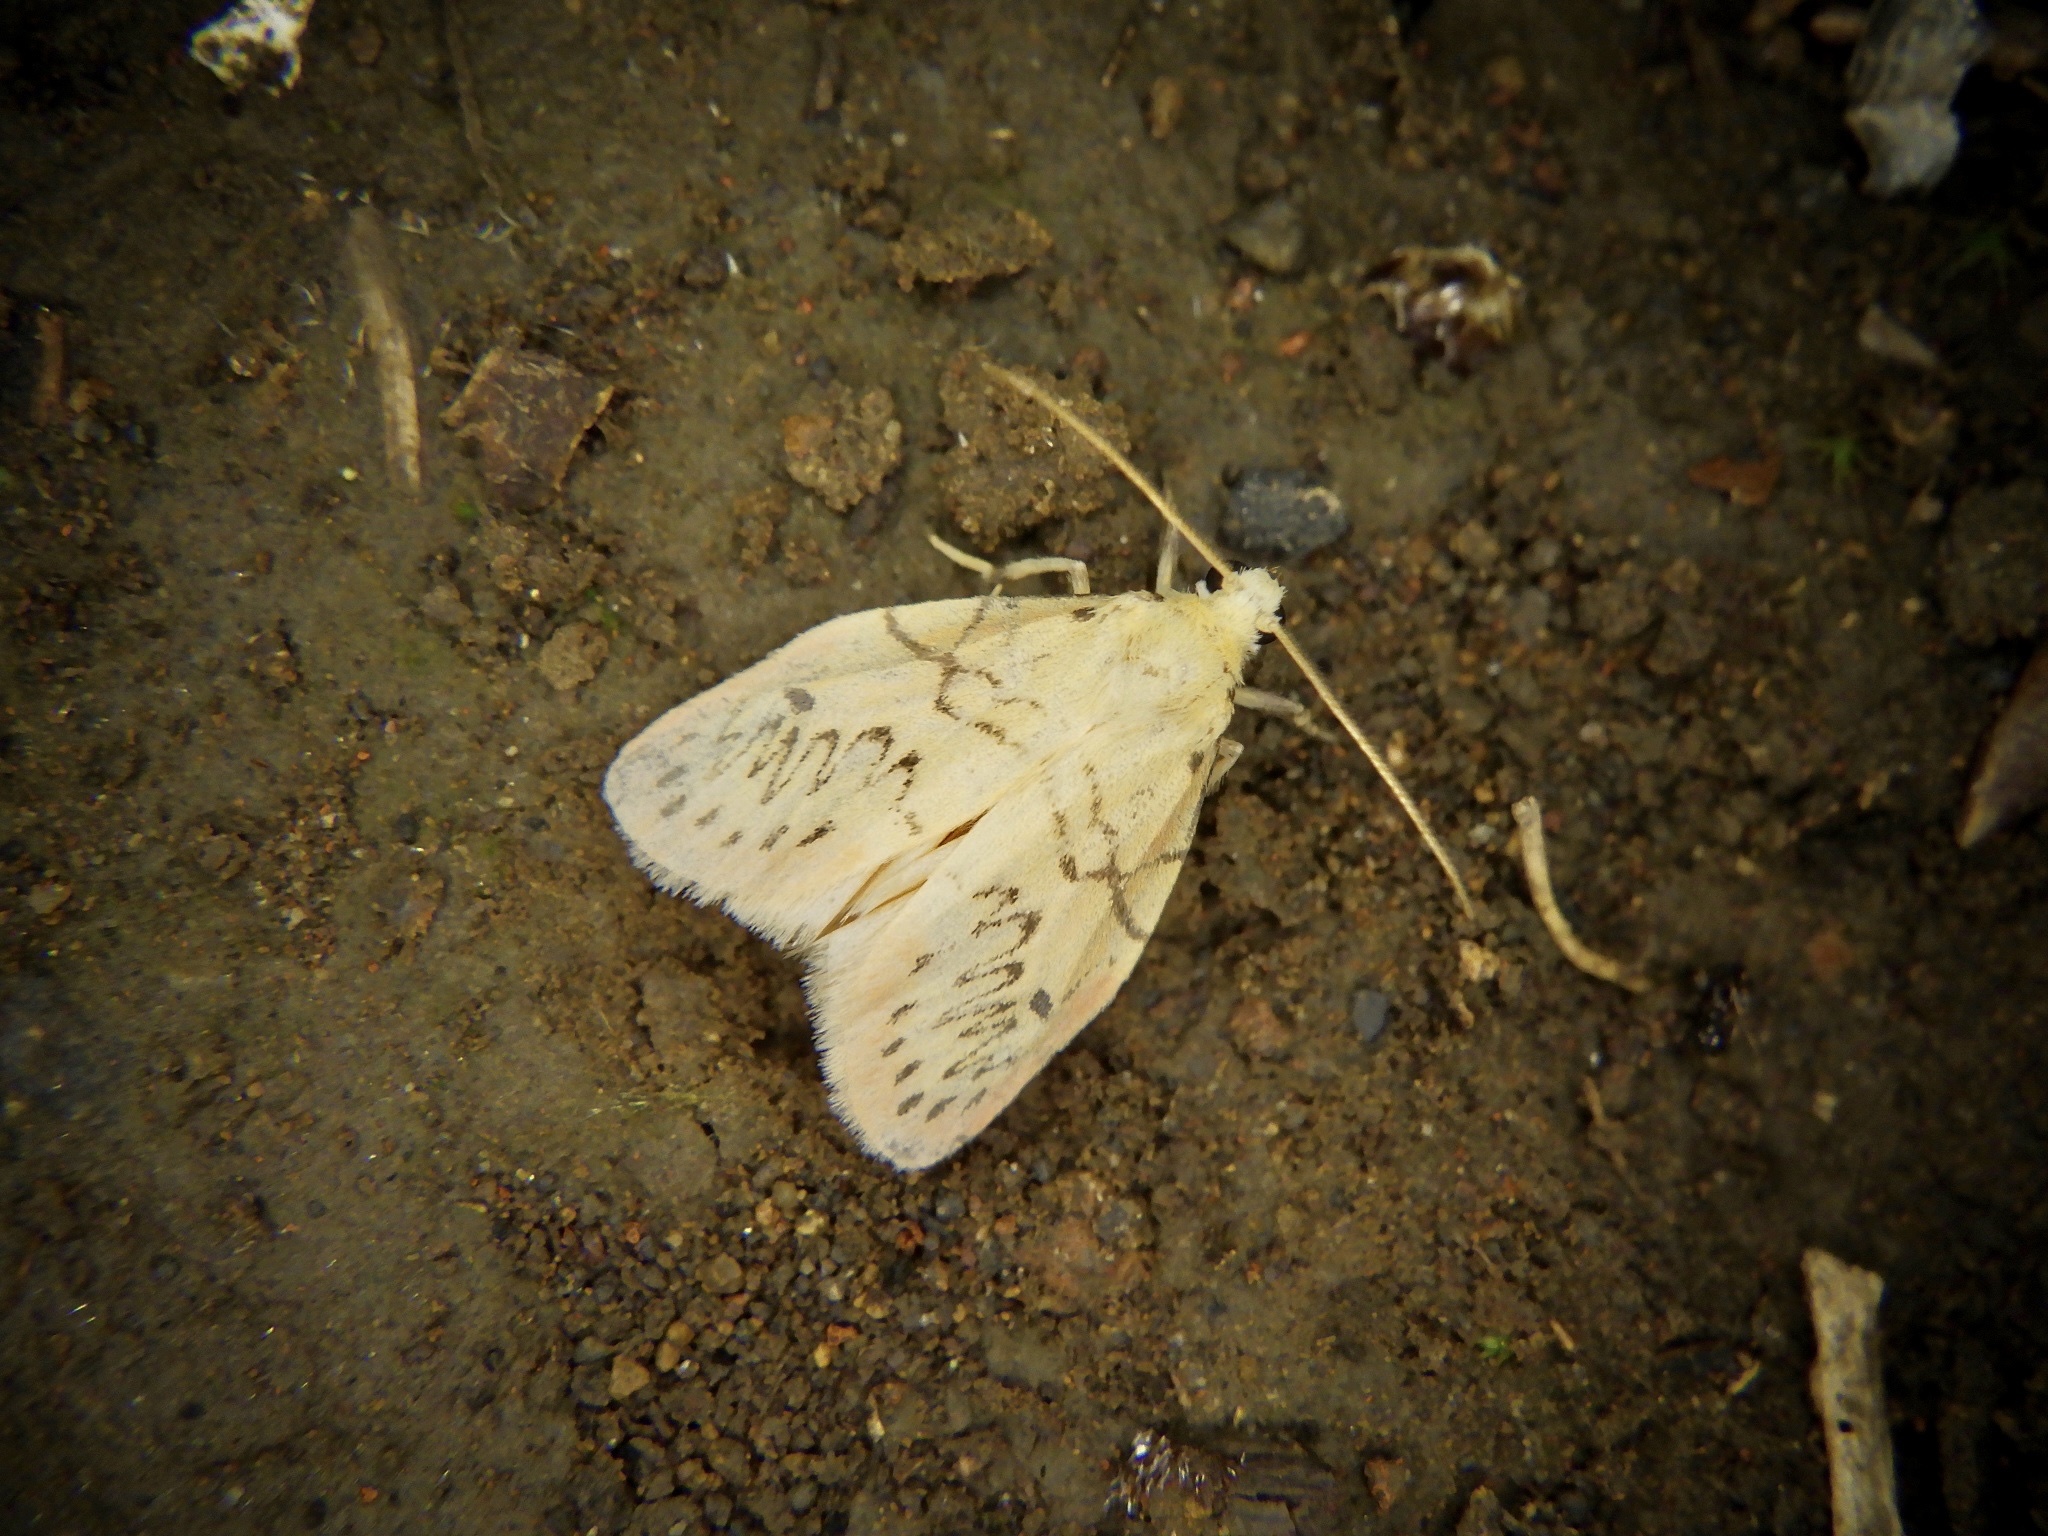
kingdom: Animalia
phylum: Arthropoda
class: Insecta
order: Lepidoptera
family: Erebidae
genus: Miltochrista
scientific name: Miltochrista miniata
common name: Rosy footman
